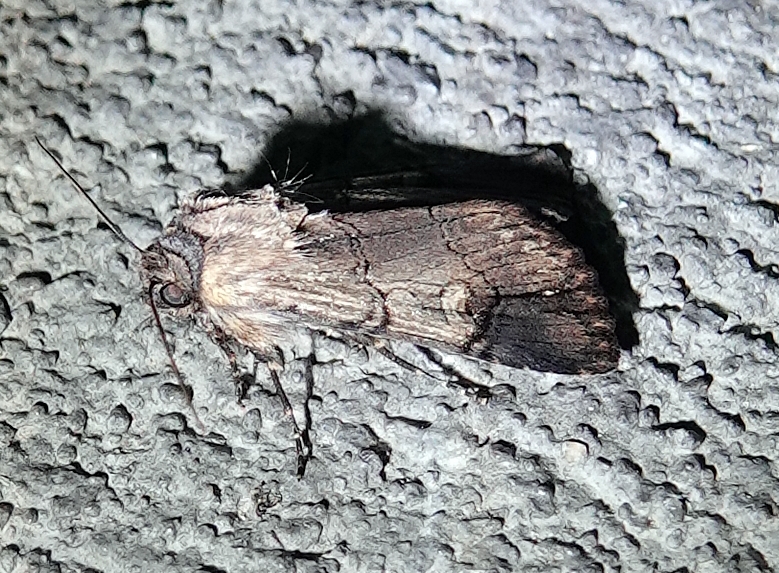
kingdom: Animalia
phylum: Arthropoda
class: Insecta
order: Lepidoptera
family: Noctuidae
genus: Dichagyris
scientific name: Dichagyris grotei
